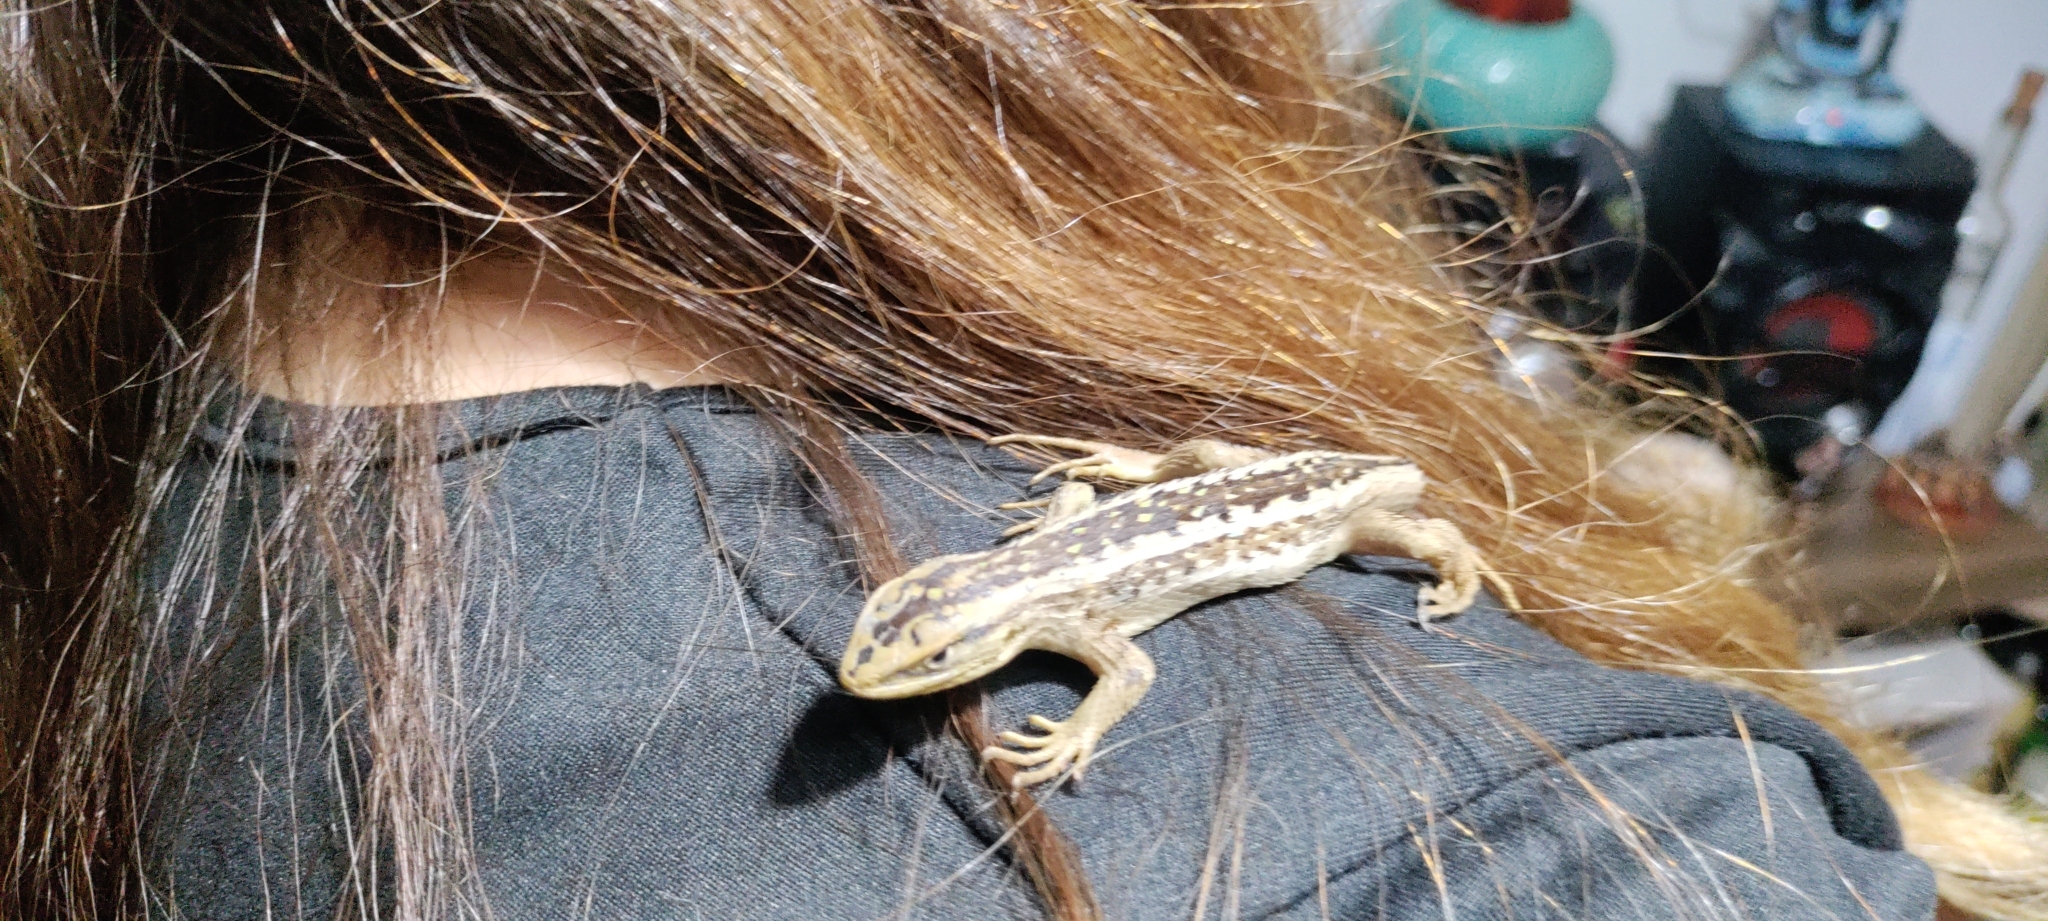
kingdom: Animalia
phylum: Chordata
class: Squamata
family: Liolaemidae
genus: Liolaemus
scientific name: Liolaemus chiliensis
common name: Chilean tree iguana
